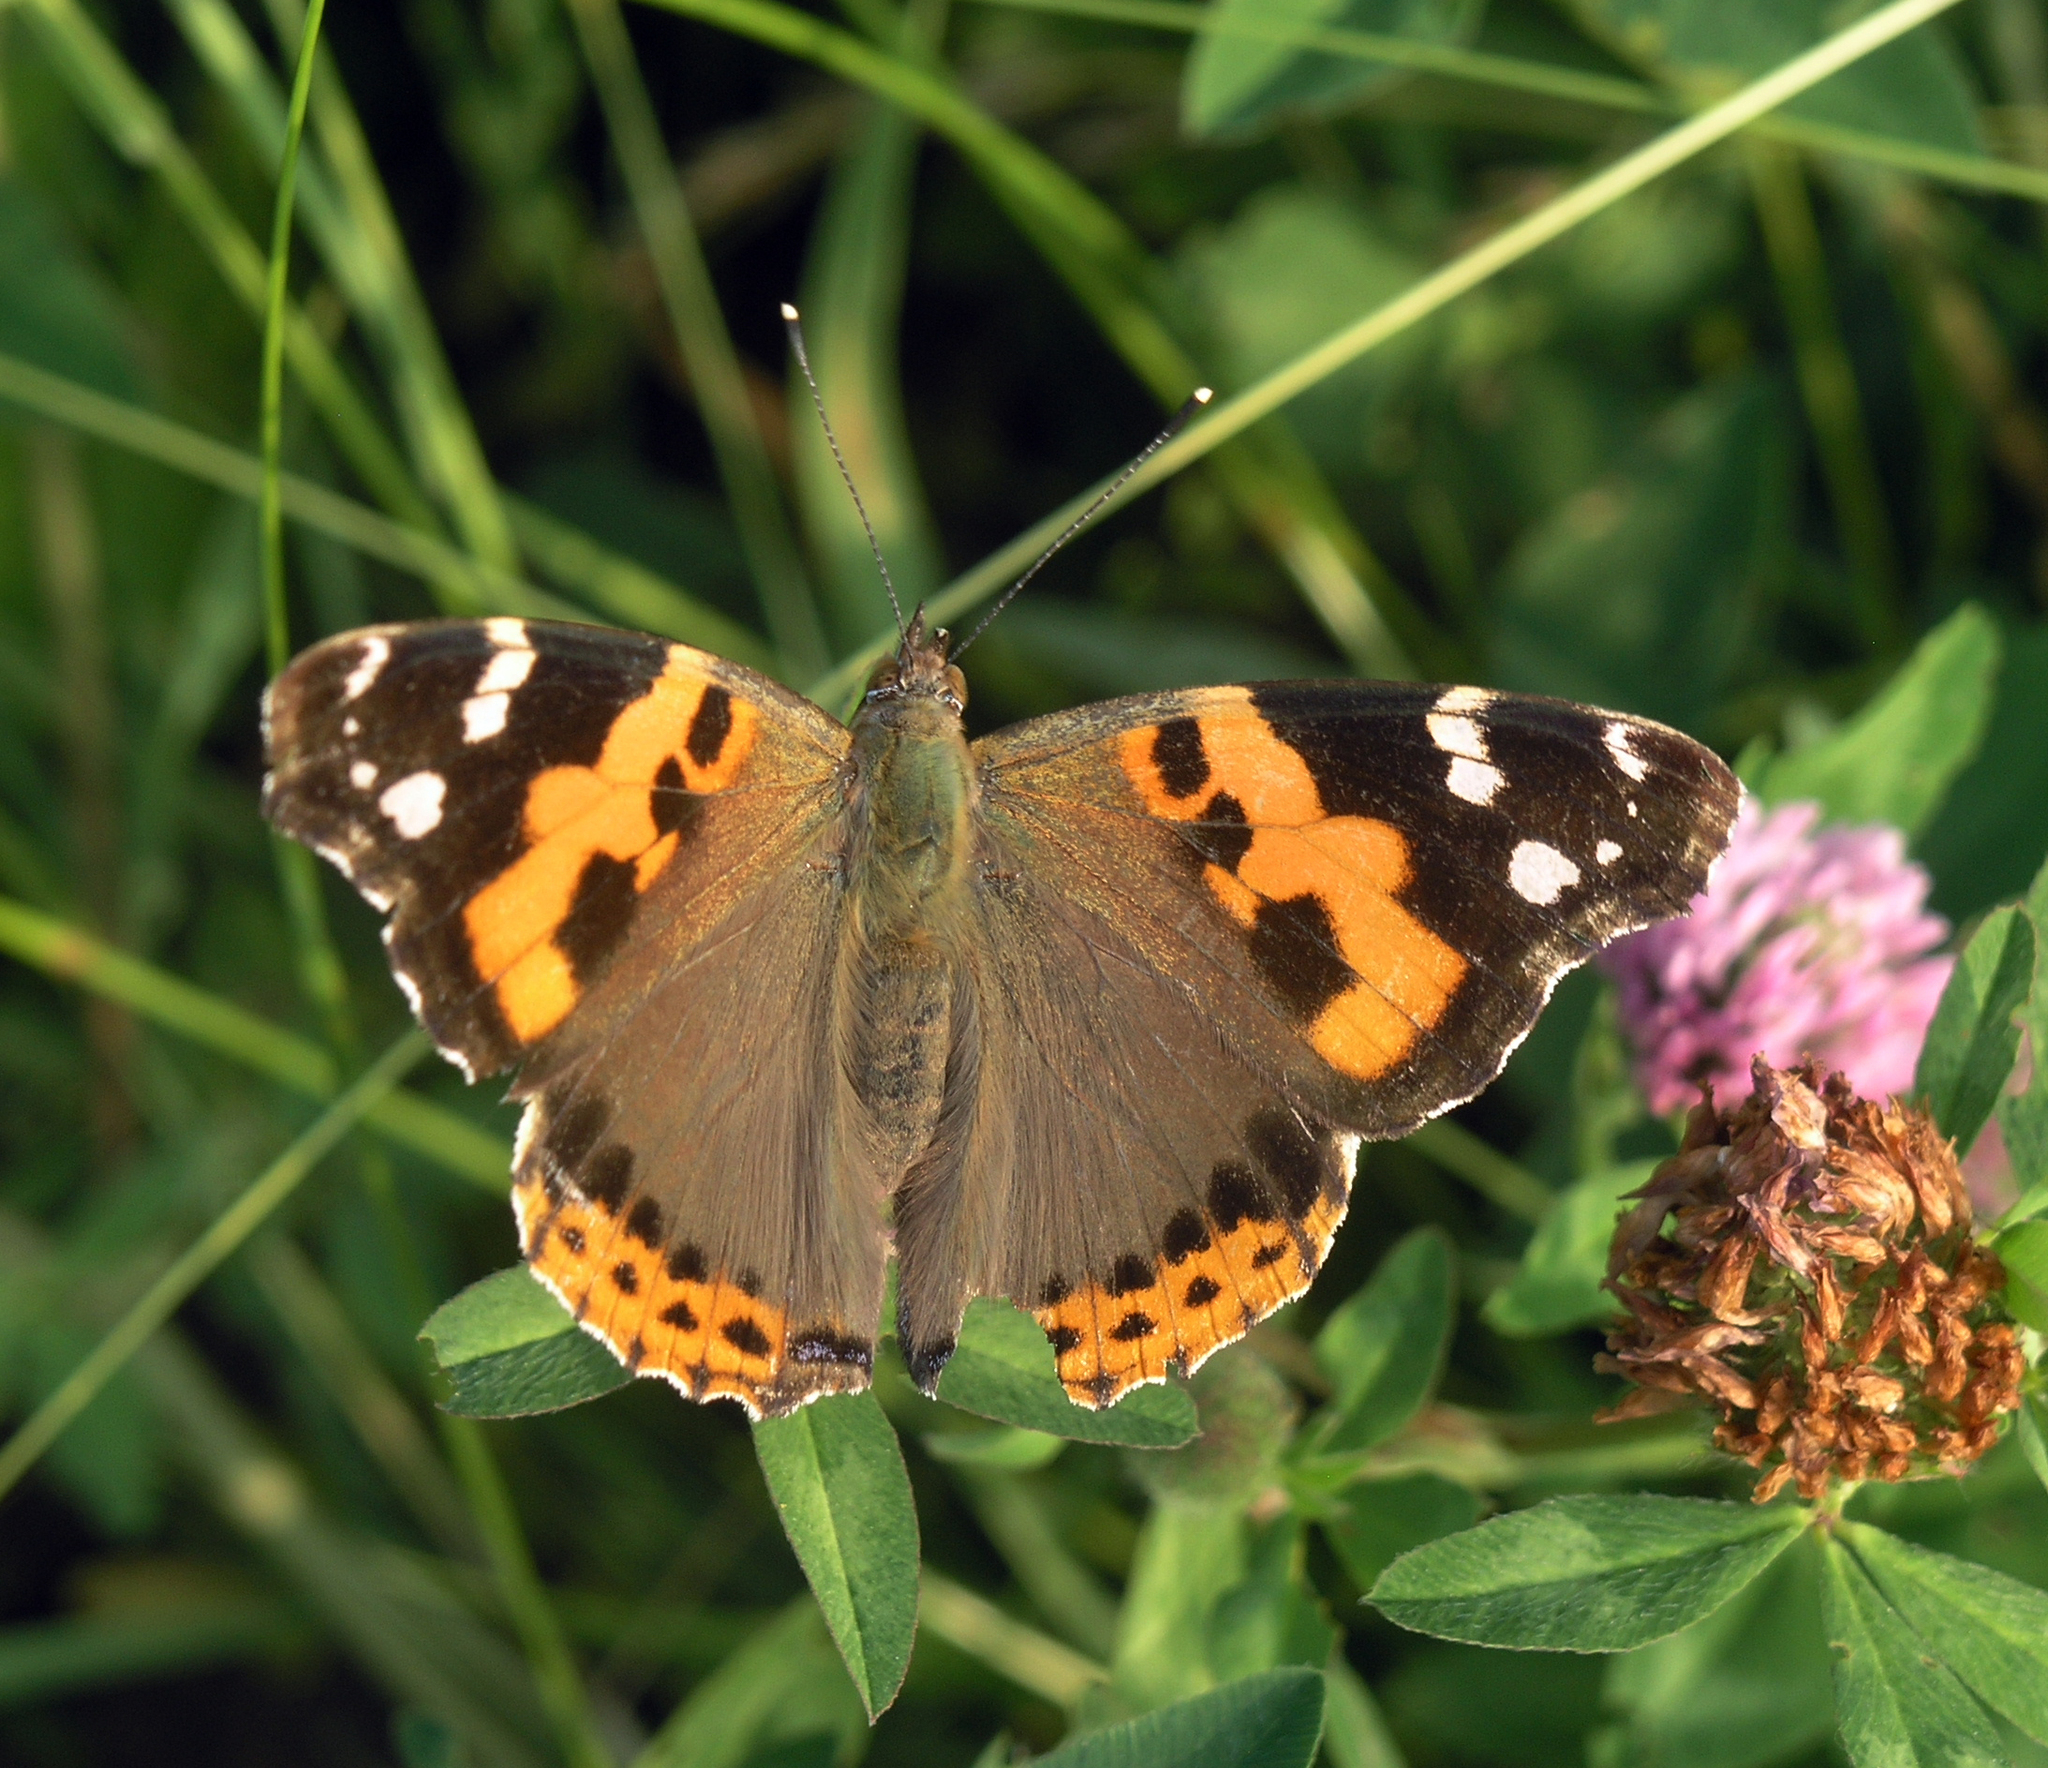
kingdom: Animalia
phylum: Arthropoda
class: Insecta
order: Lepidoptera
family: Nymphalidae
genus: Vanessa
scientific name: Vanessa indica
